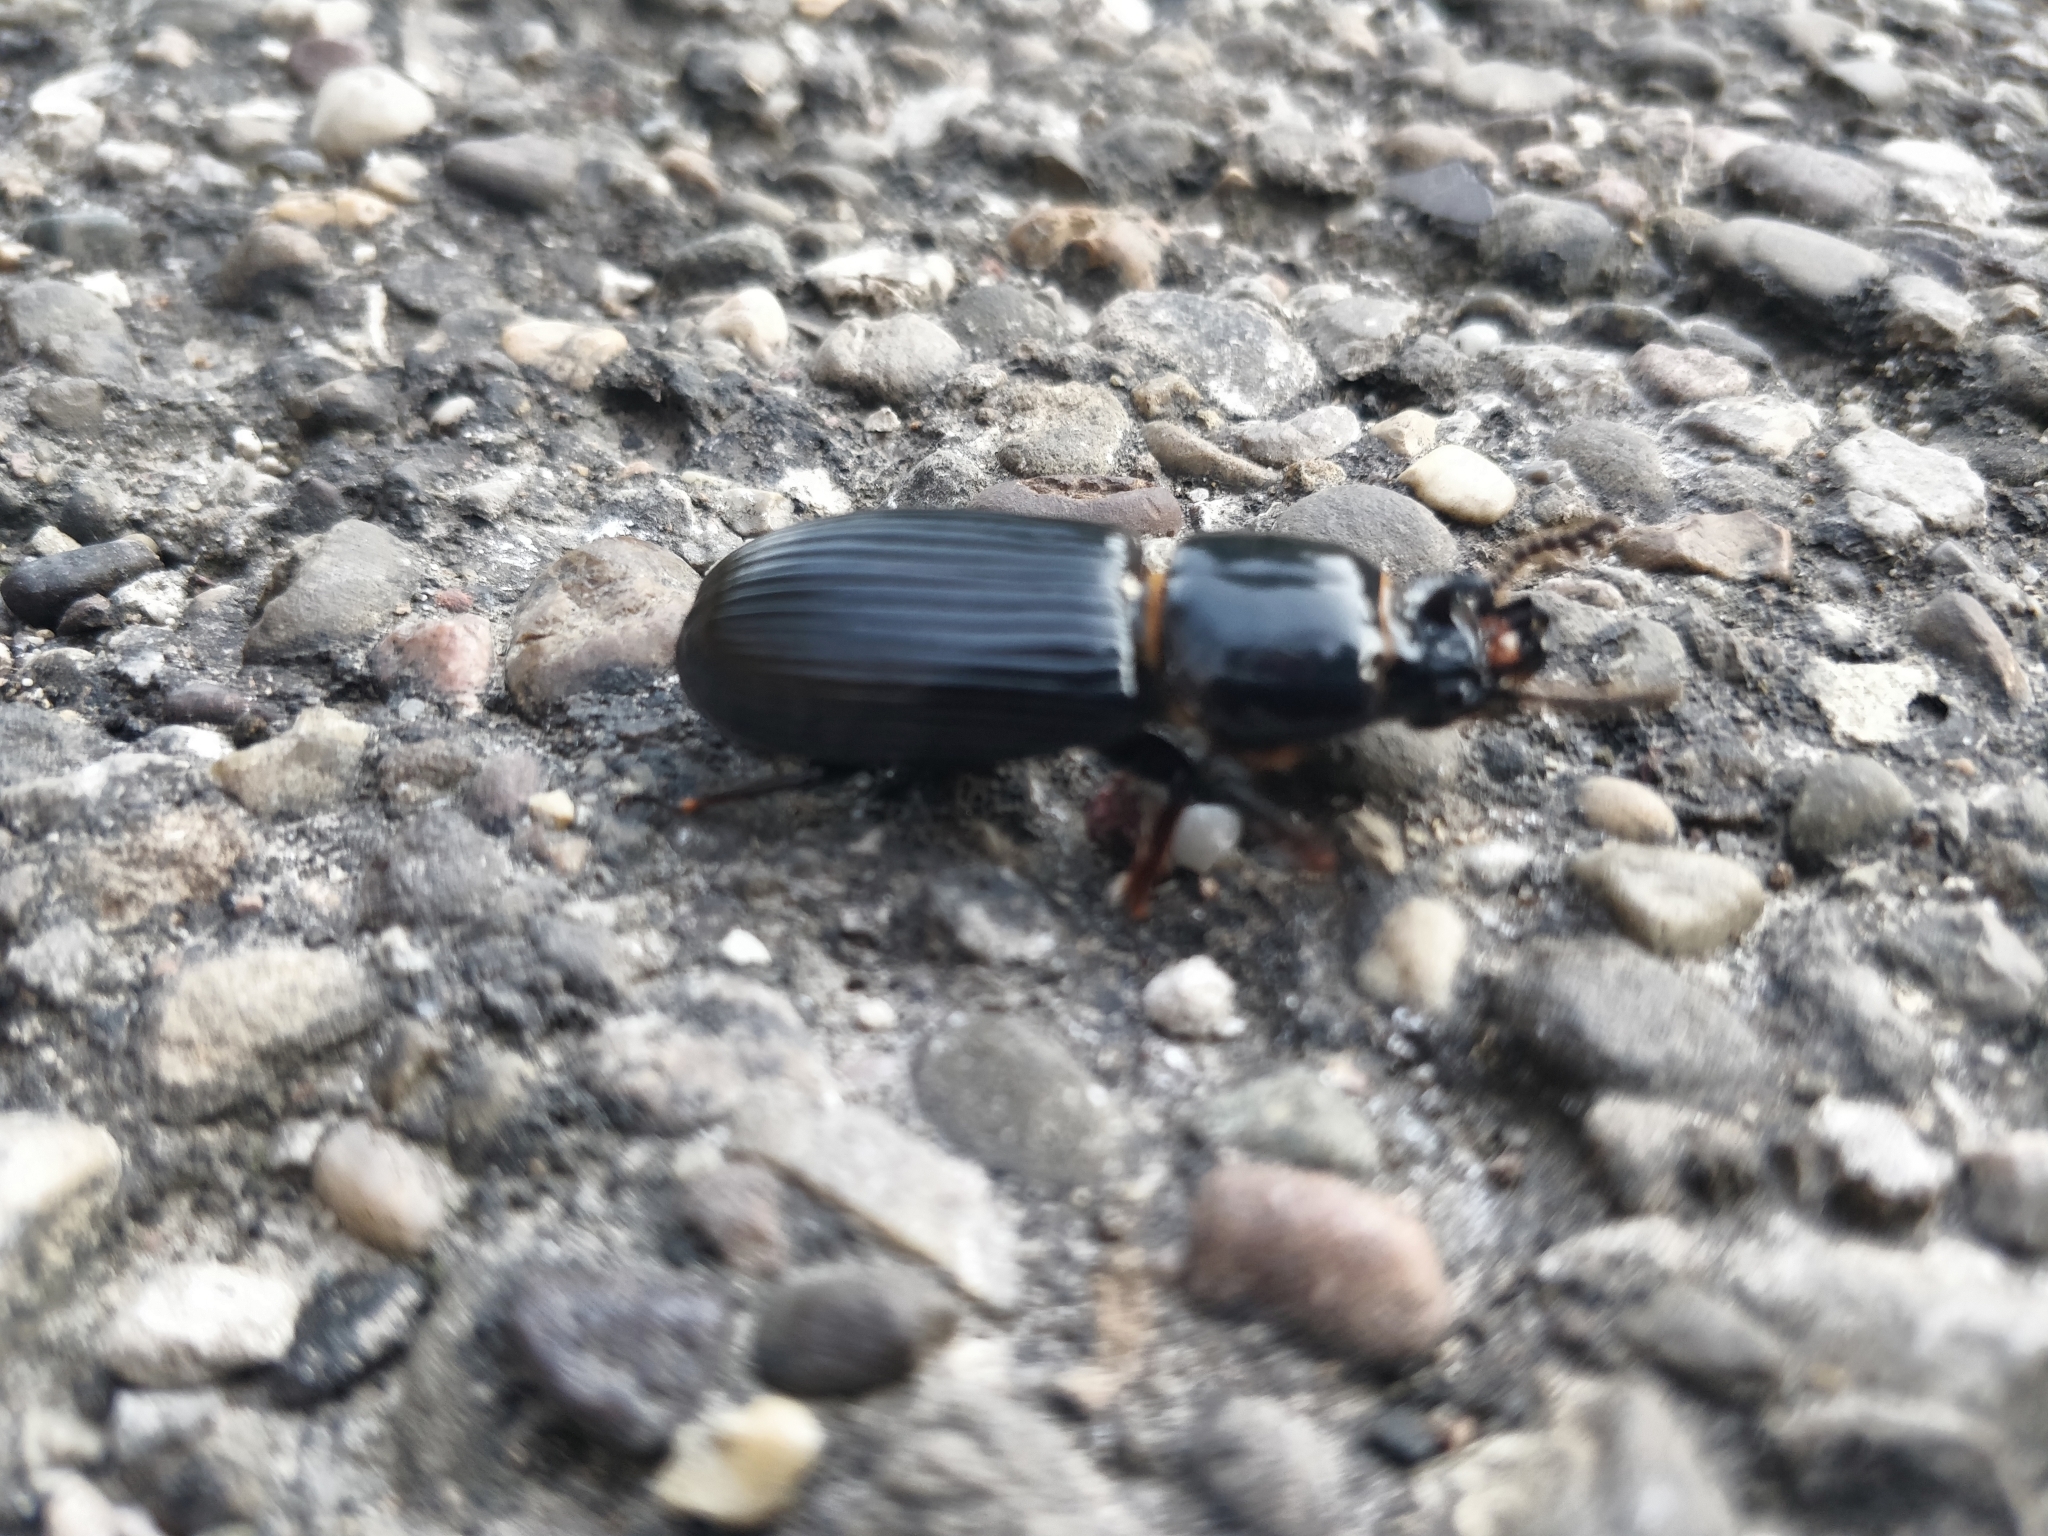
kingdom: Animalia
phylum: Arthropoda
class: Insecta
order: Coleoptera
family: Passalidae
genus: Odontotaenius
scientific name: Odontotaenius disjunctus
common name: Patent leather beetle
